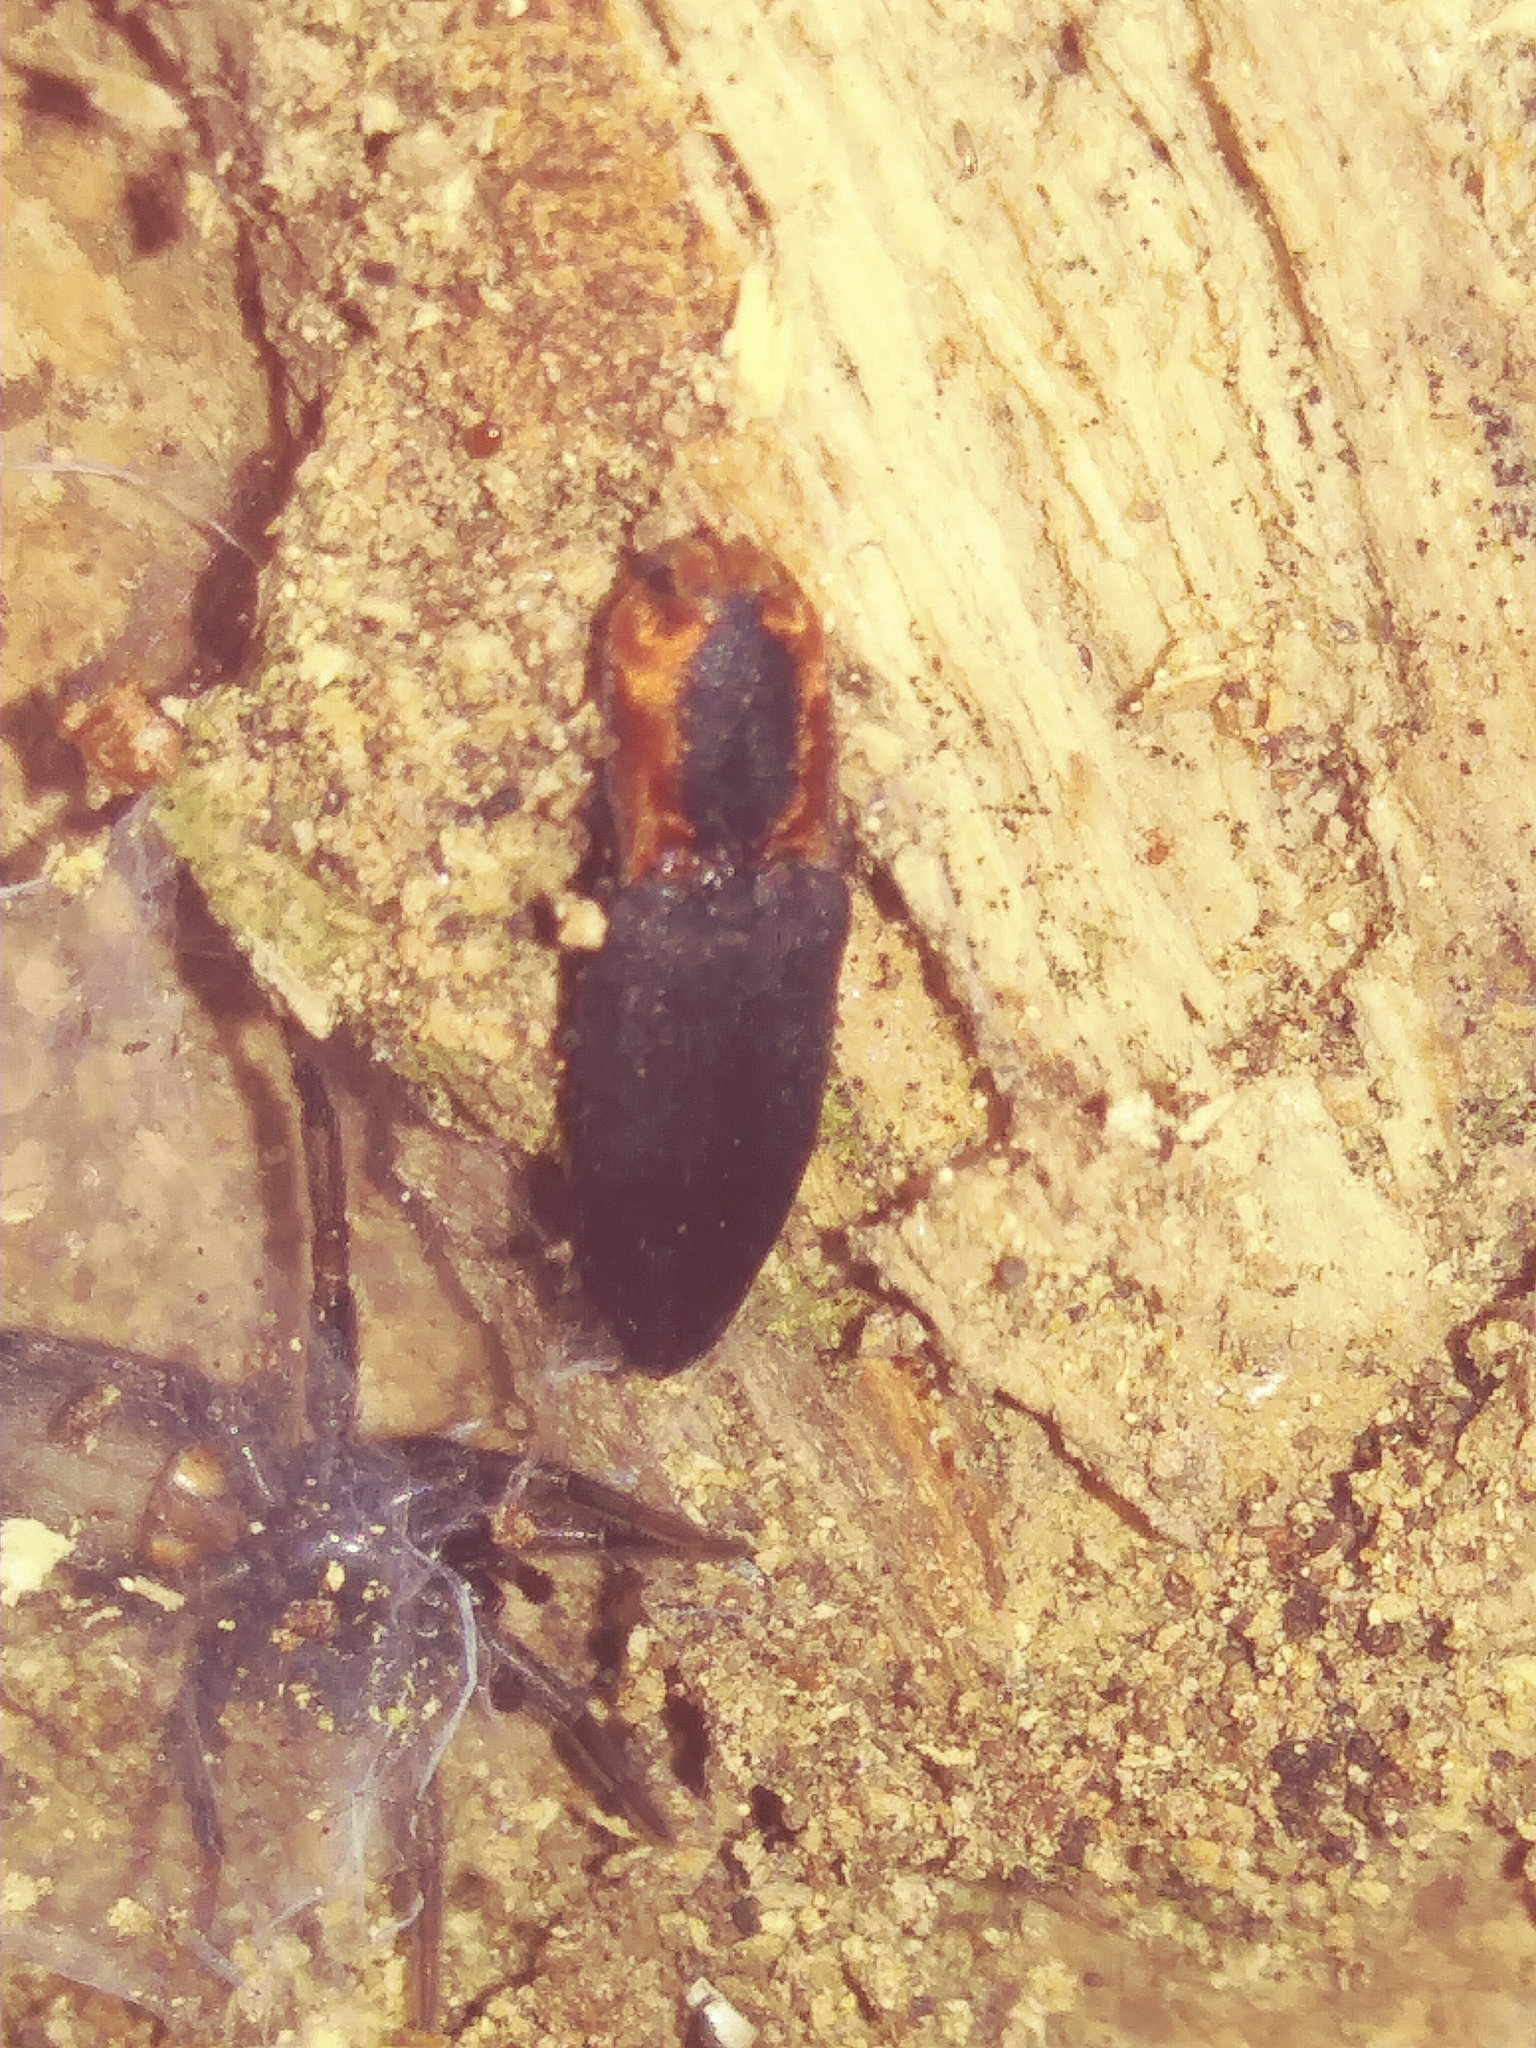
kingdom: Animalia
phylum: Arthropoda
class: Insecta
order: Coleoptera
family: Elateridae
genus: Lacon
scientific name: Lacon discoideus
